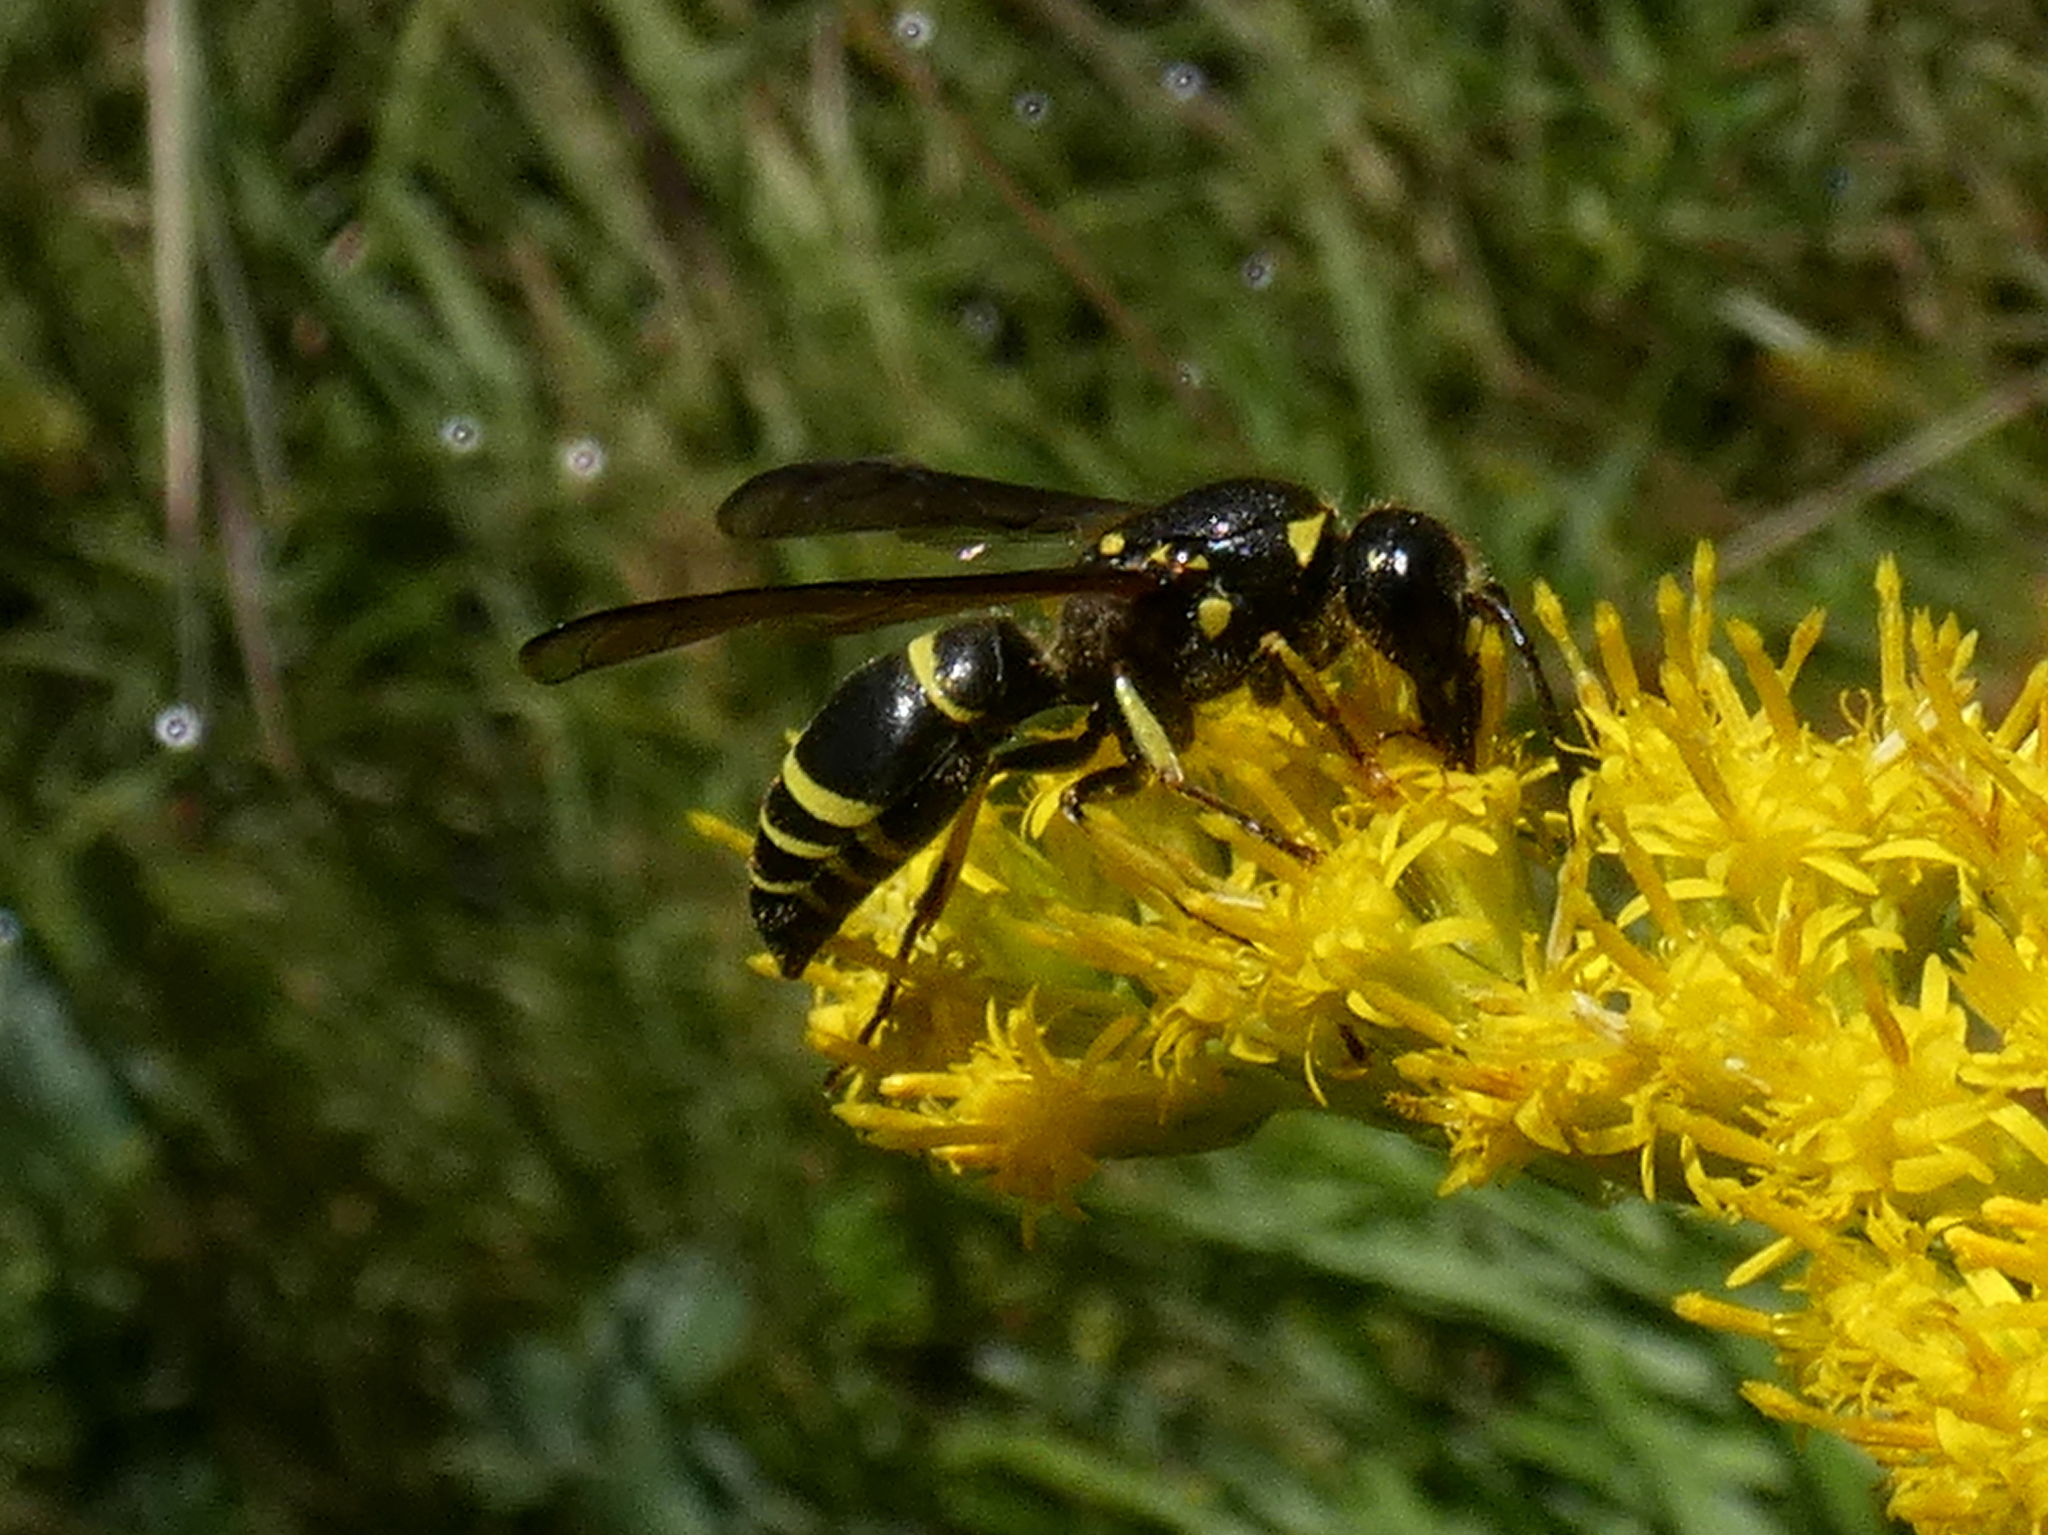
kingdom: Animalia
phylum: Arthropoda
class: Insecta
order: Hymenoptera
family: Vespidae
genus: Ancistrocerus
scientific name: Ancistrocerus
